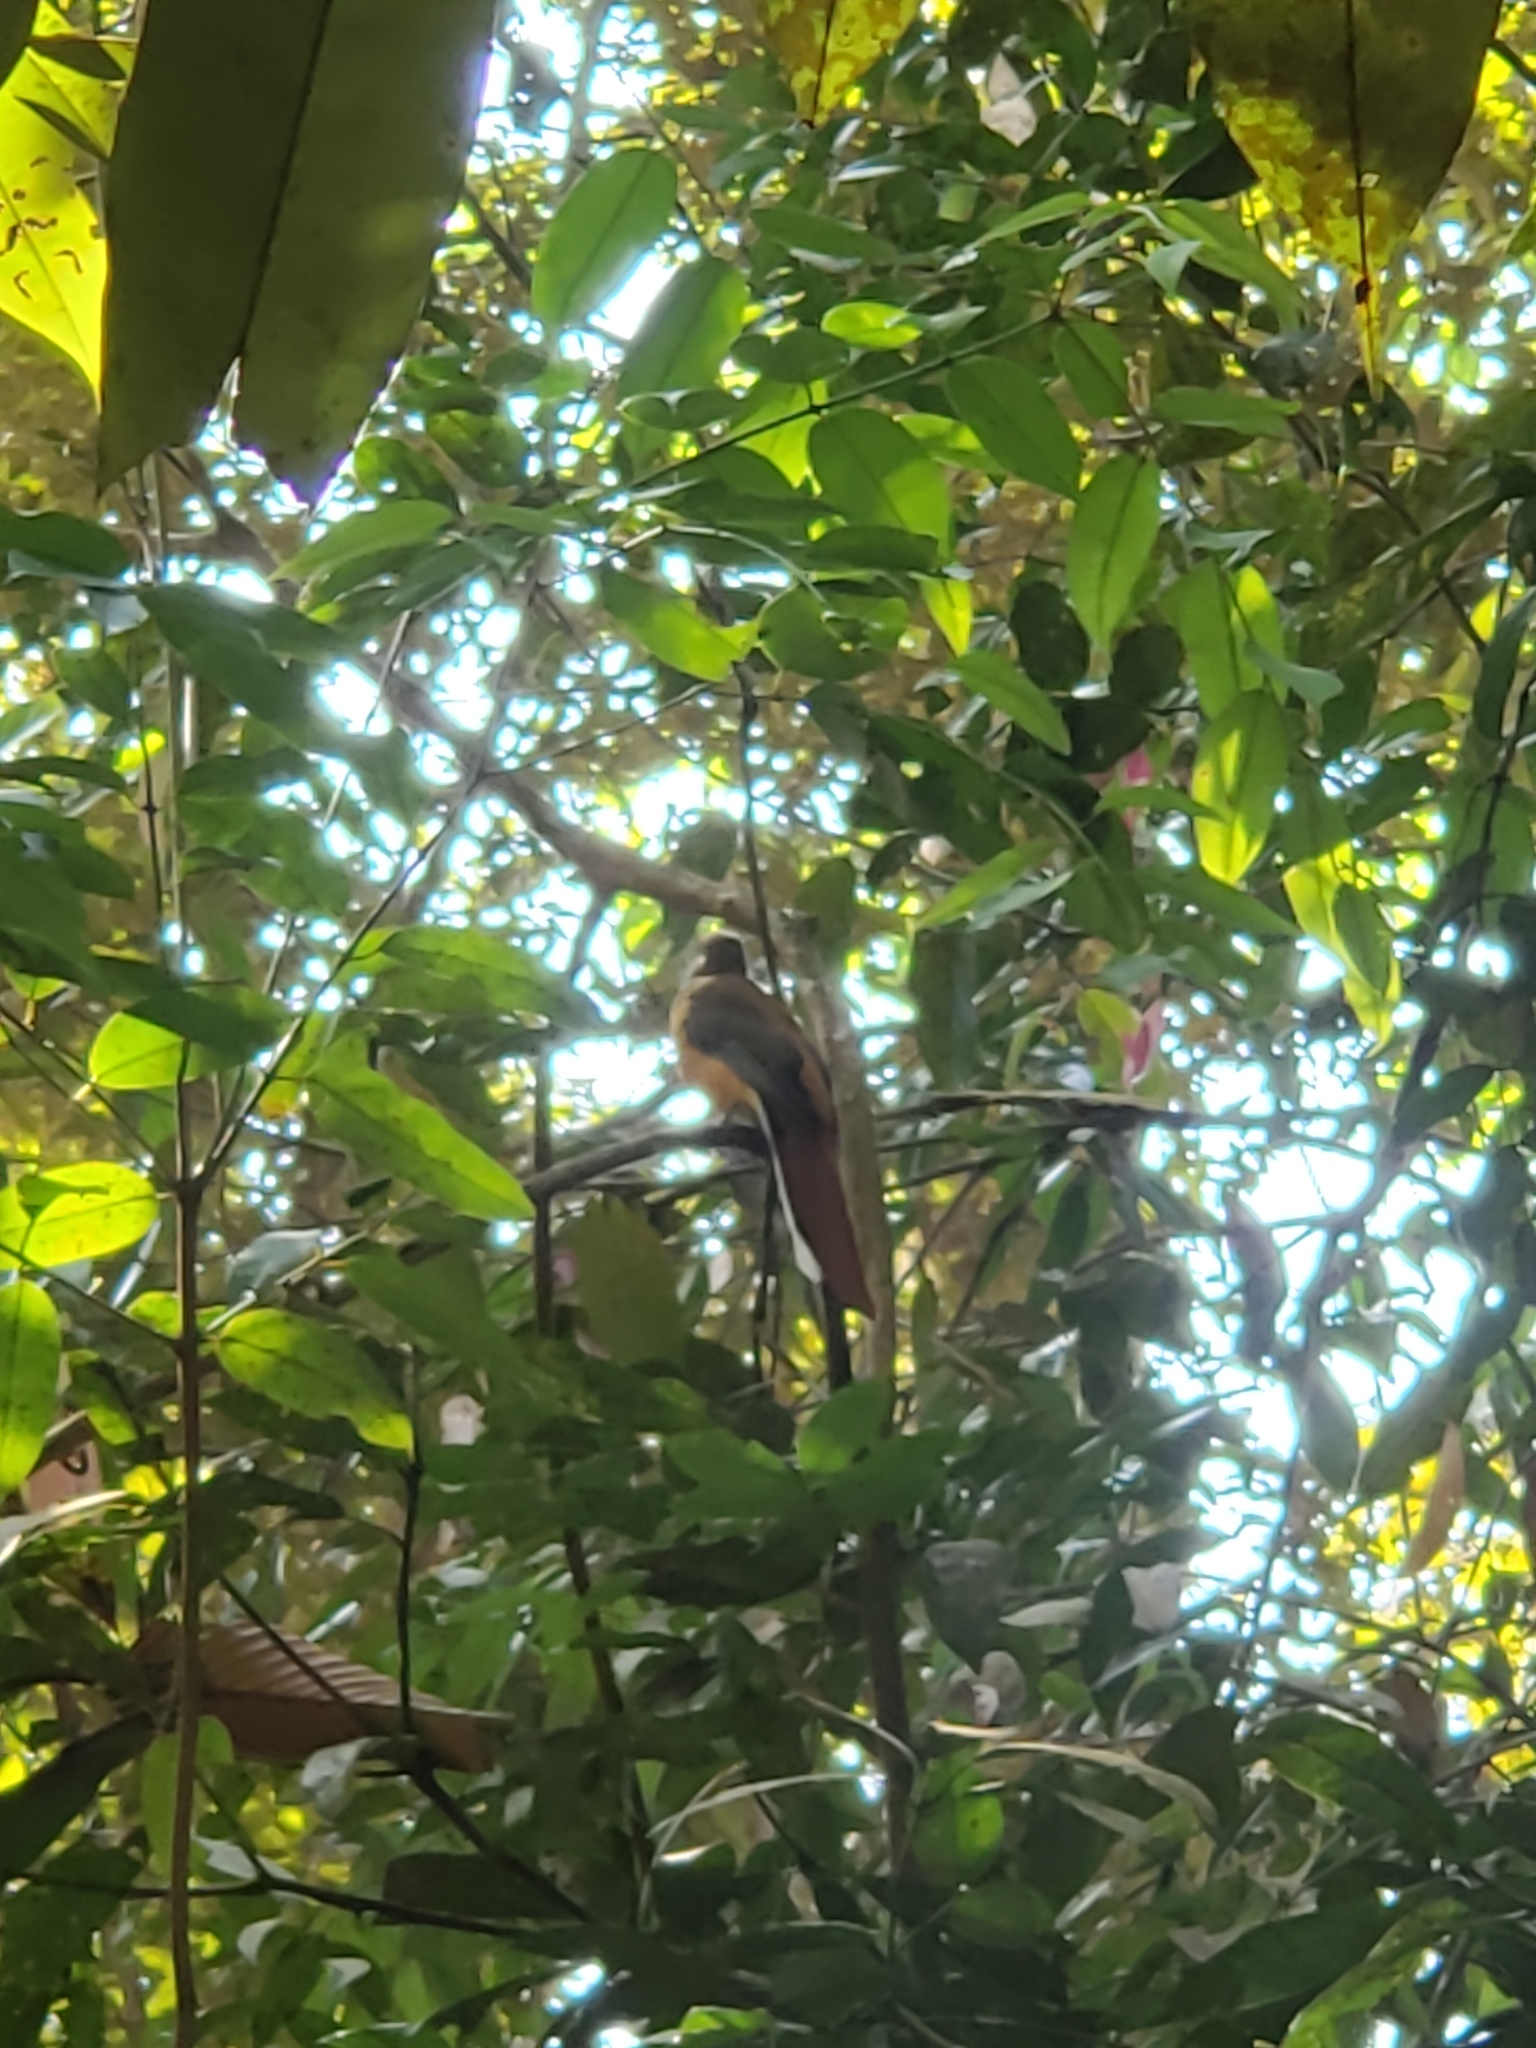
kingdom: Animalia
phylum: Chordata
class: Aves
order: Trogoniformes
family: Trogonidae
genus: Harpactes
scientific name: Harpactes fasciatus
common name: Malabar trogon
